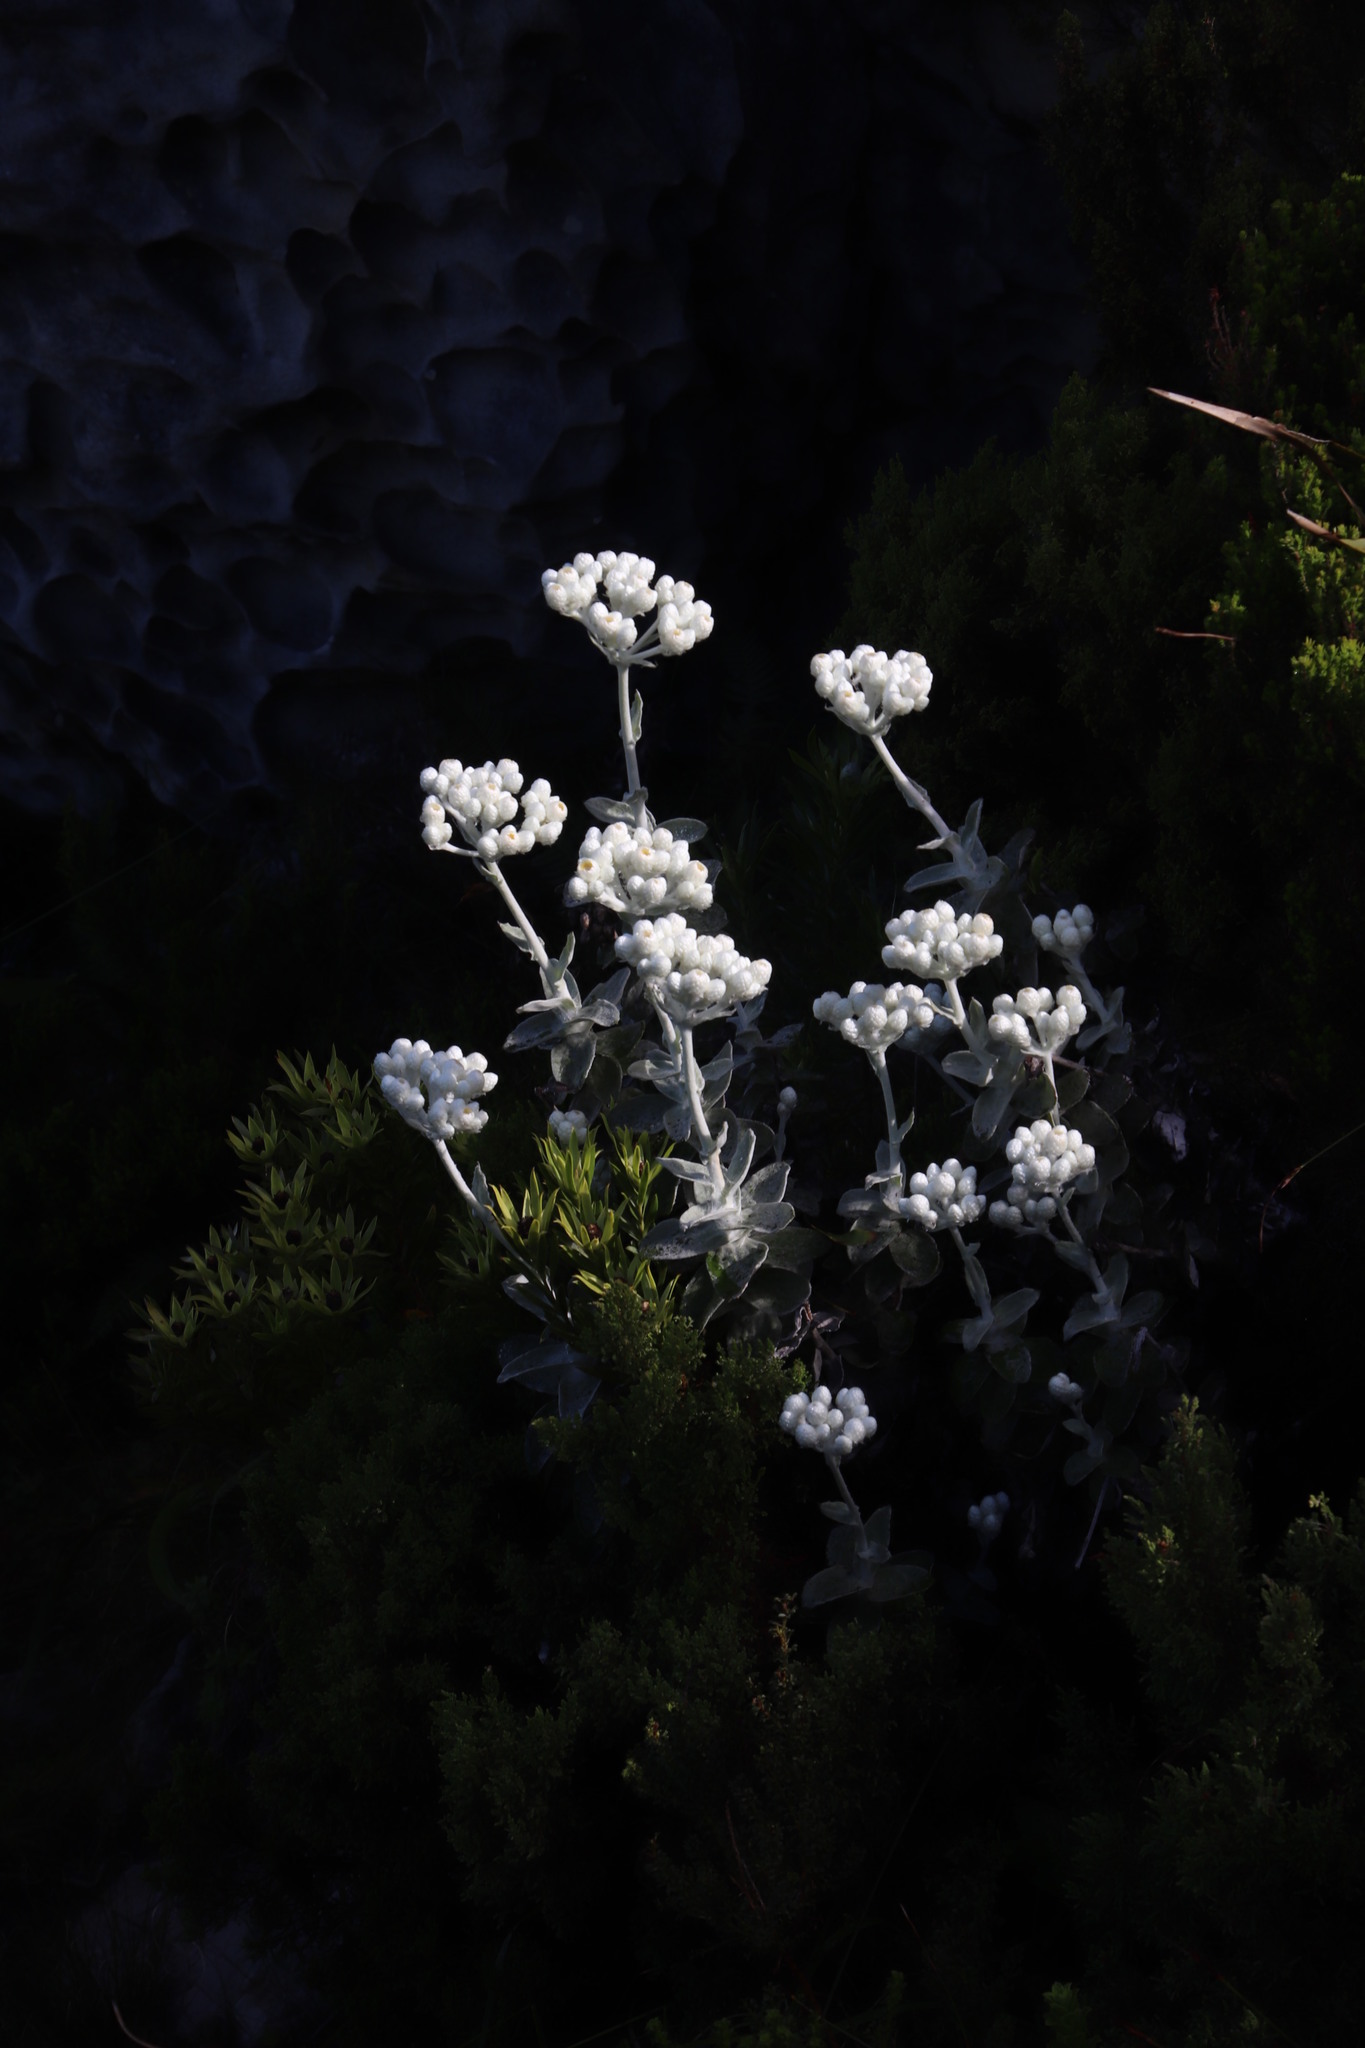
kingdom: Plantae
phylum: Tracheophyta
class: Magnoliopsida
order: Asterales
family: Asteraceae
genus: Helichrysum
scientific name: Helichrysum fruticans
